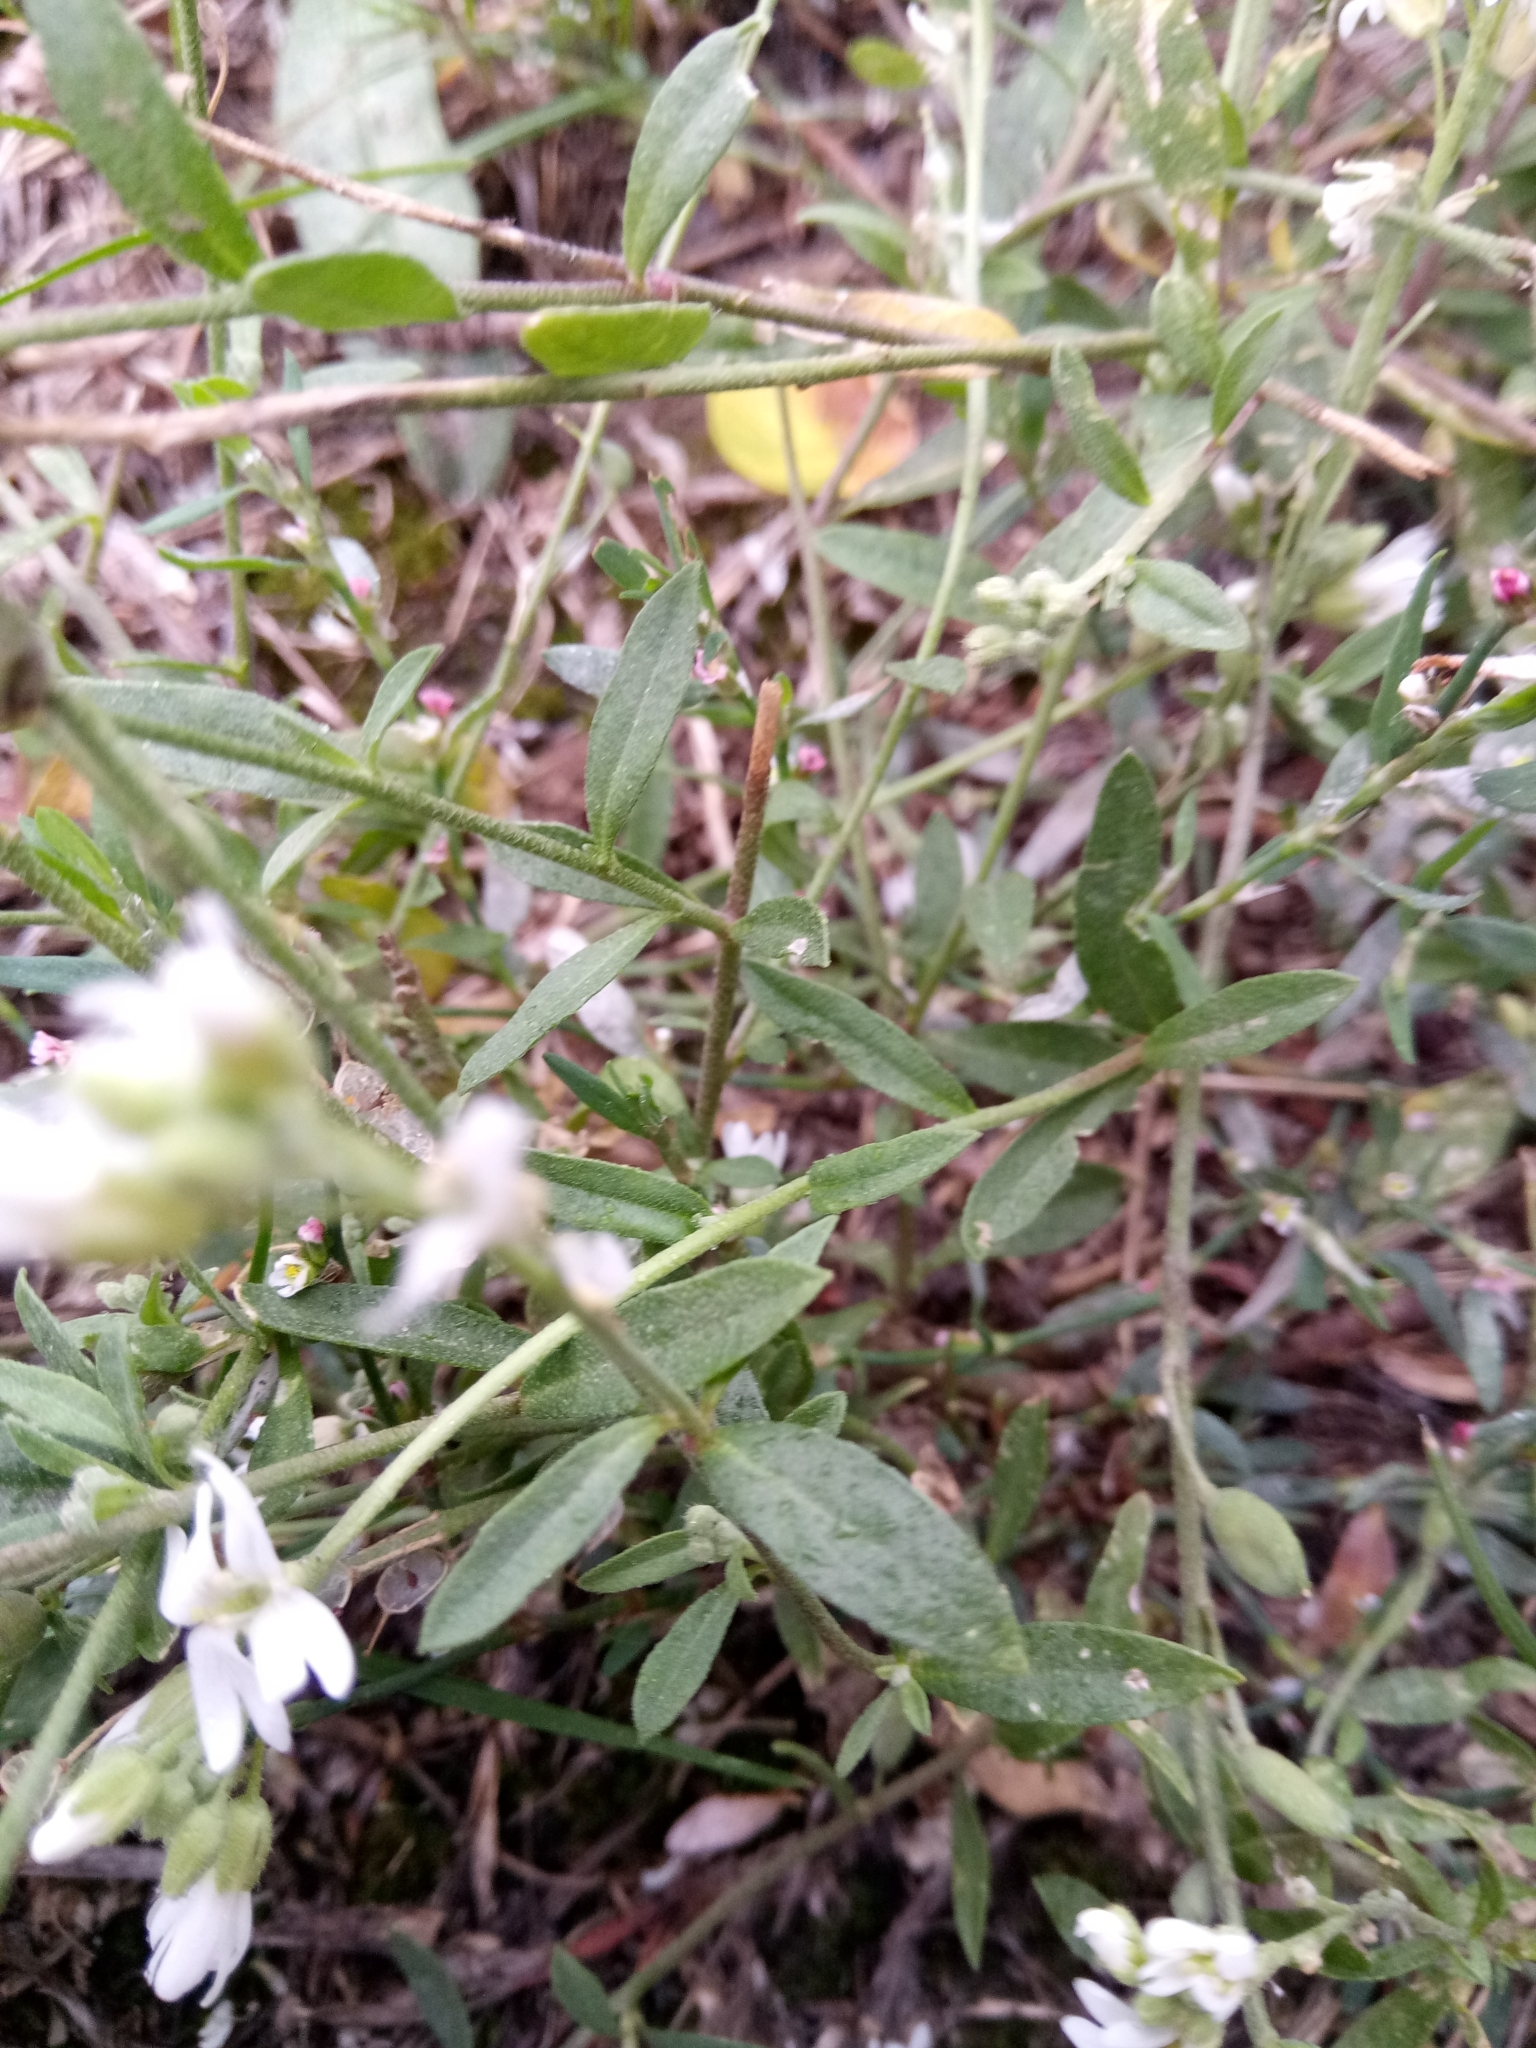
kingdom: Plantae
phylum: Tracheophyta
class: Magnoliopsida
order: Brassicales
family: Brassicaceae
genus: Berteroa
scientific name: Berteroa incana
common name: Hoary alison
